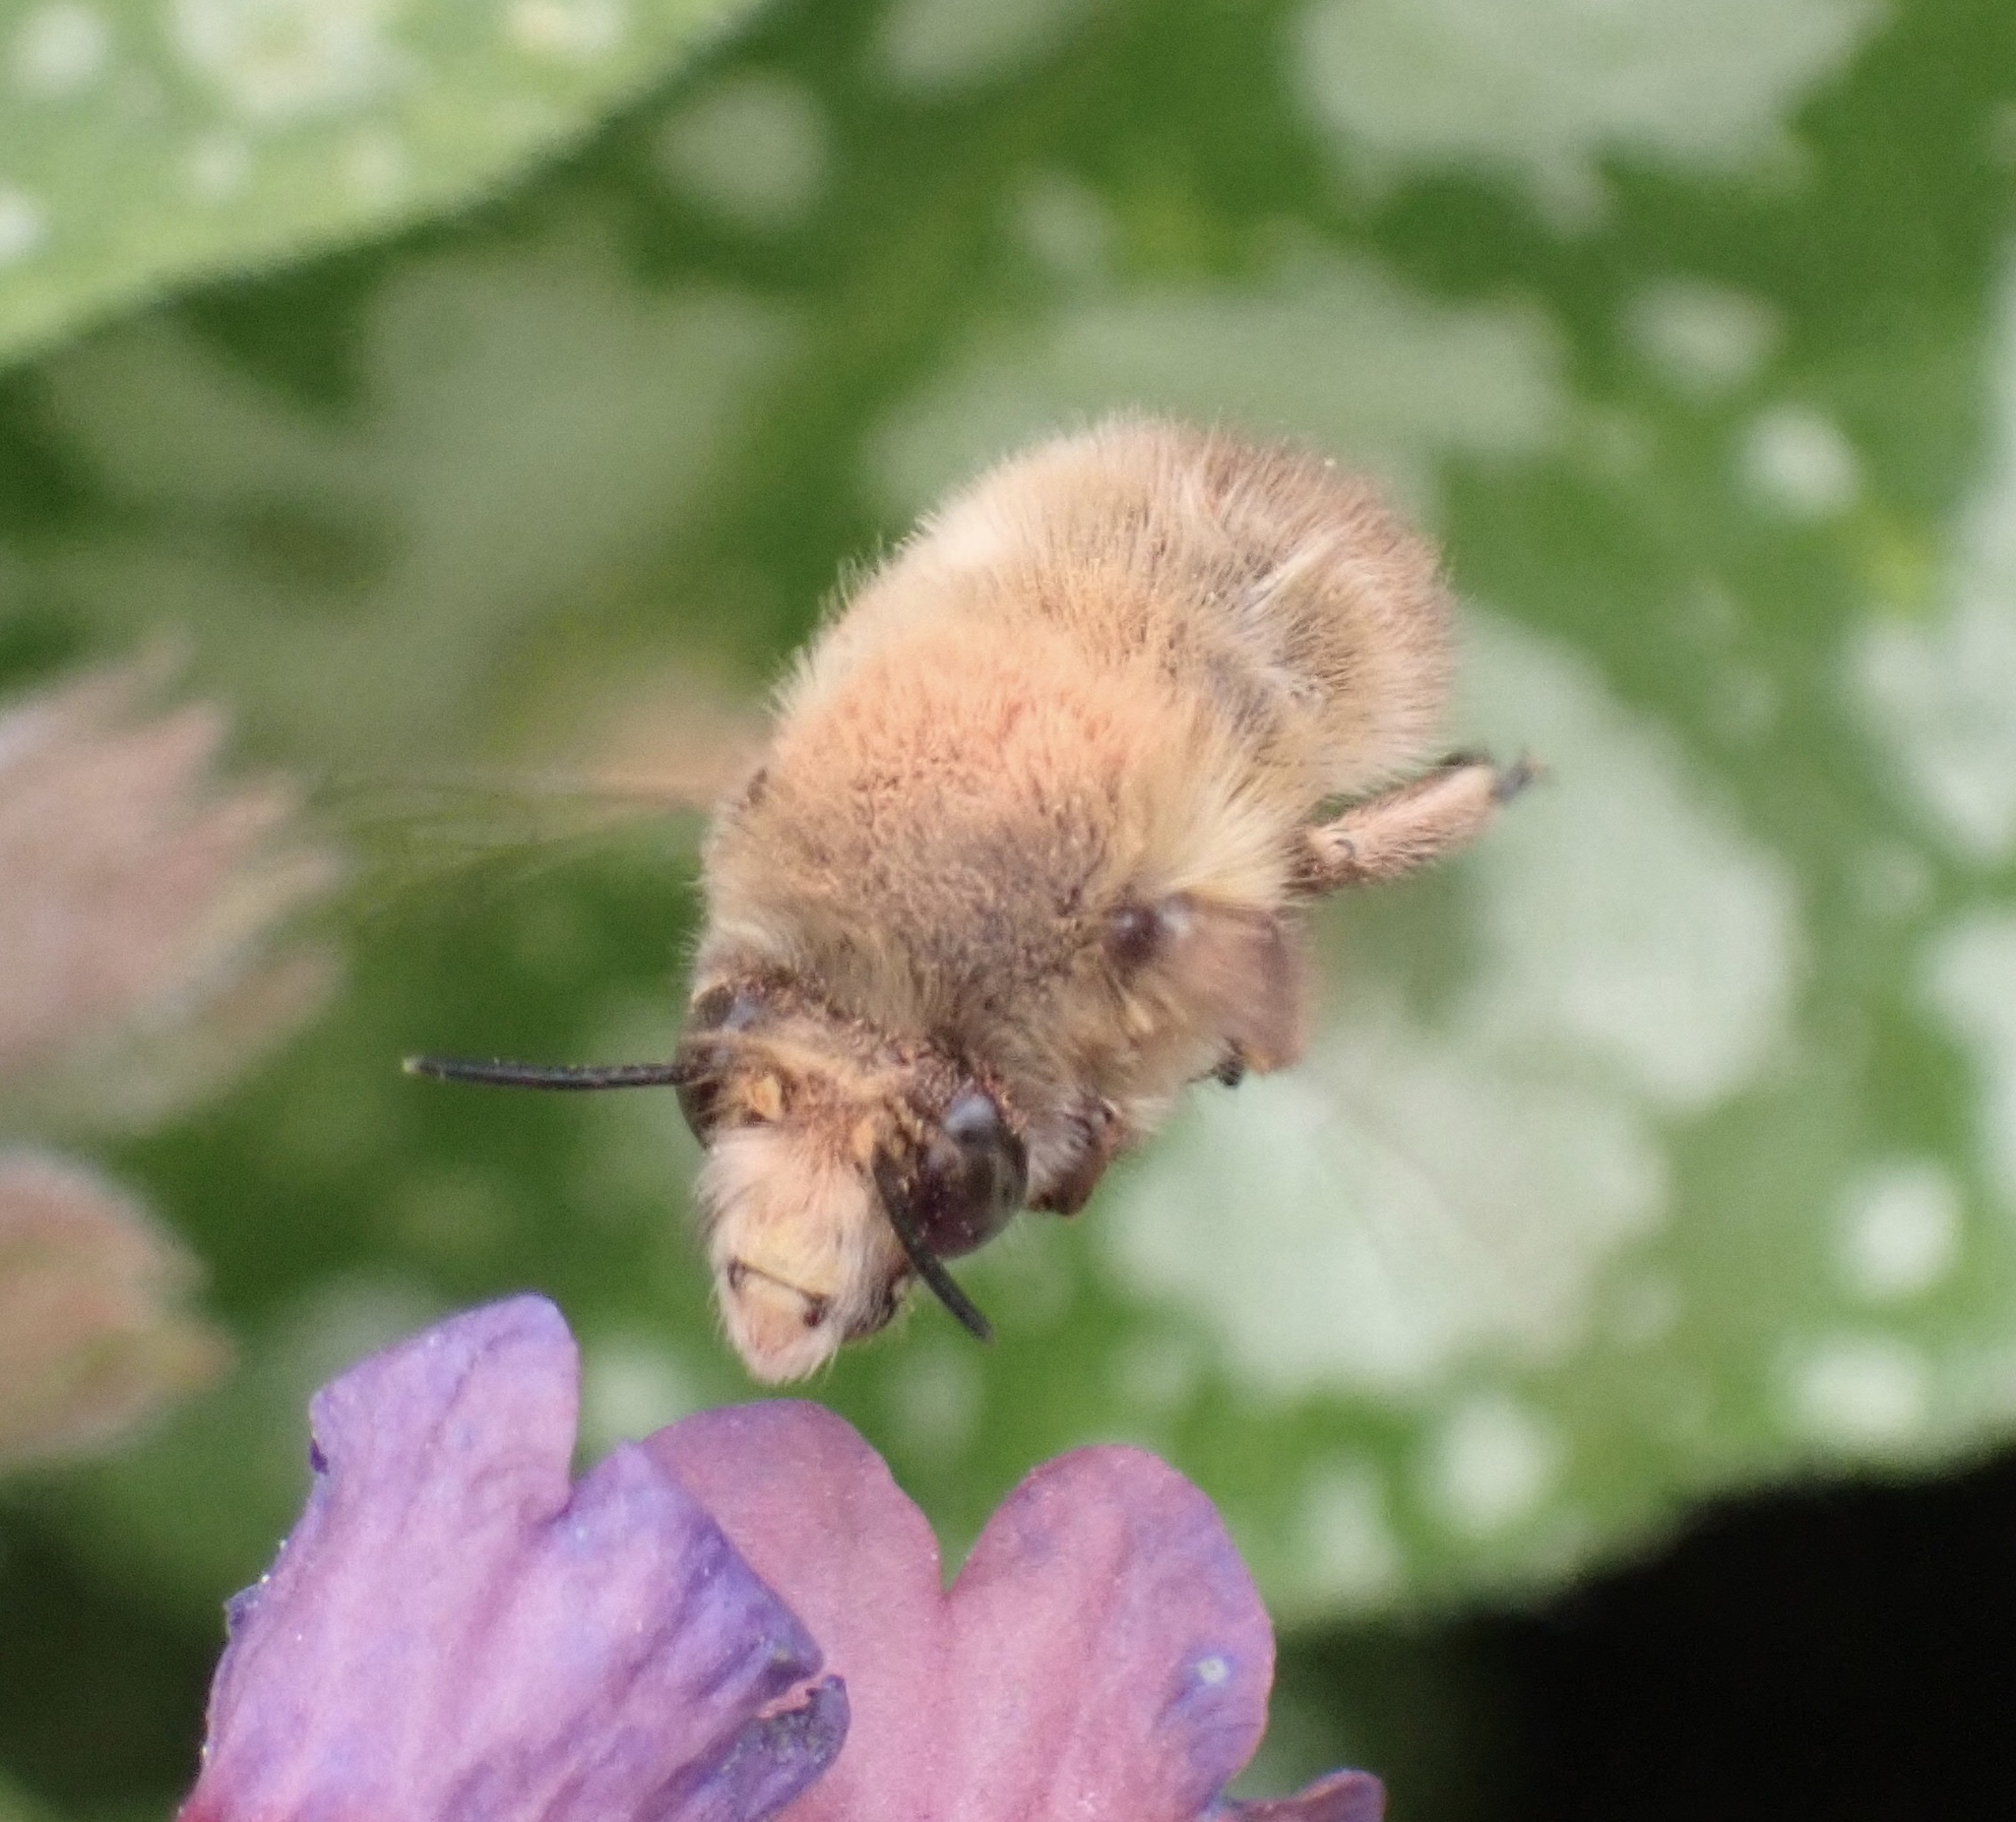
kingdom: Animalia
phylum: Arthropoda
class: Insecta
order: Hymenoptera
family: Apidae
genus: Anthophora
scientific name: Anthophora plumipes
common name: Hairy-footed flower bee
